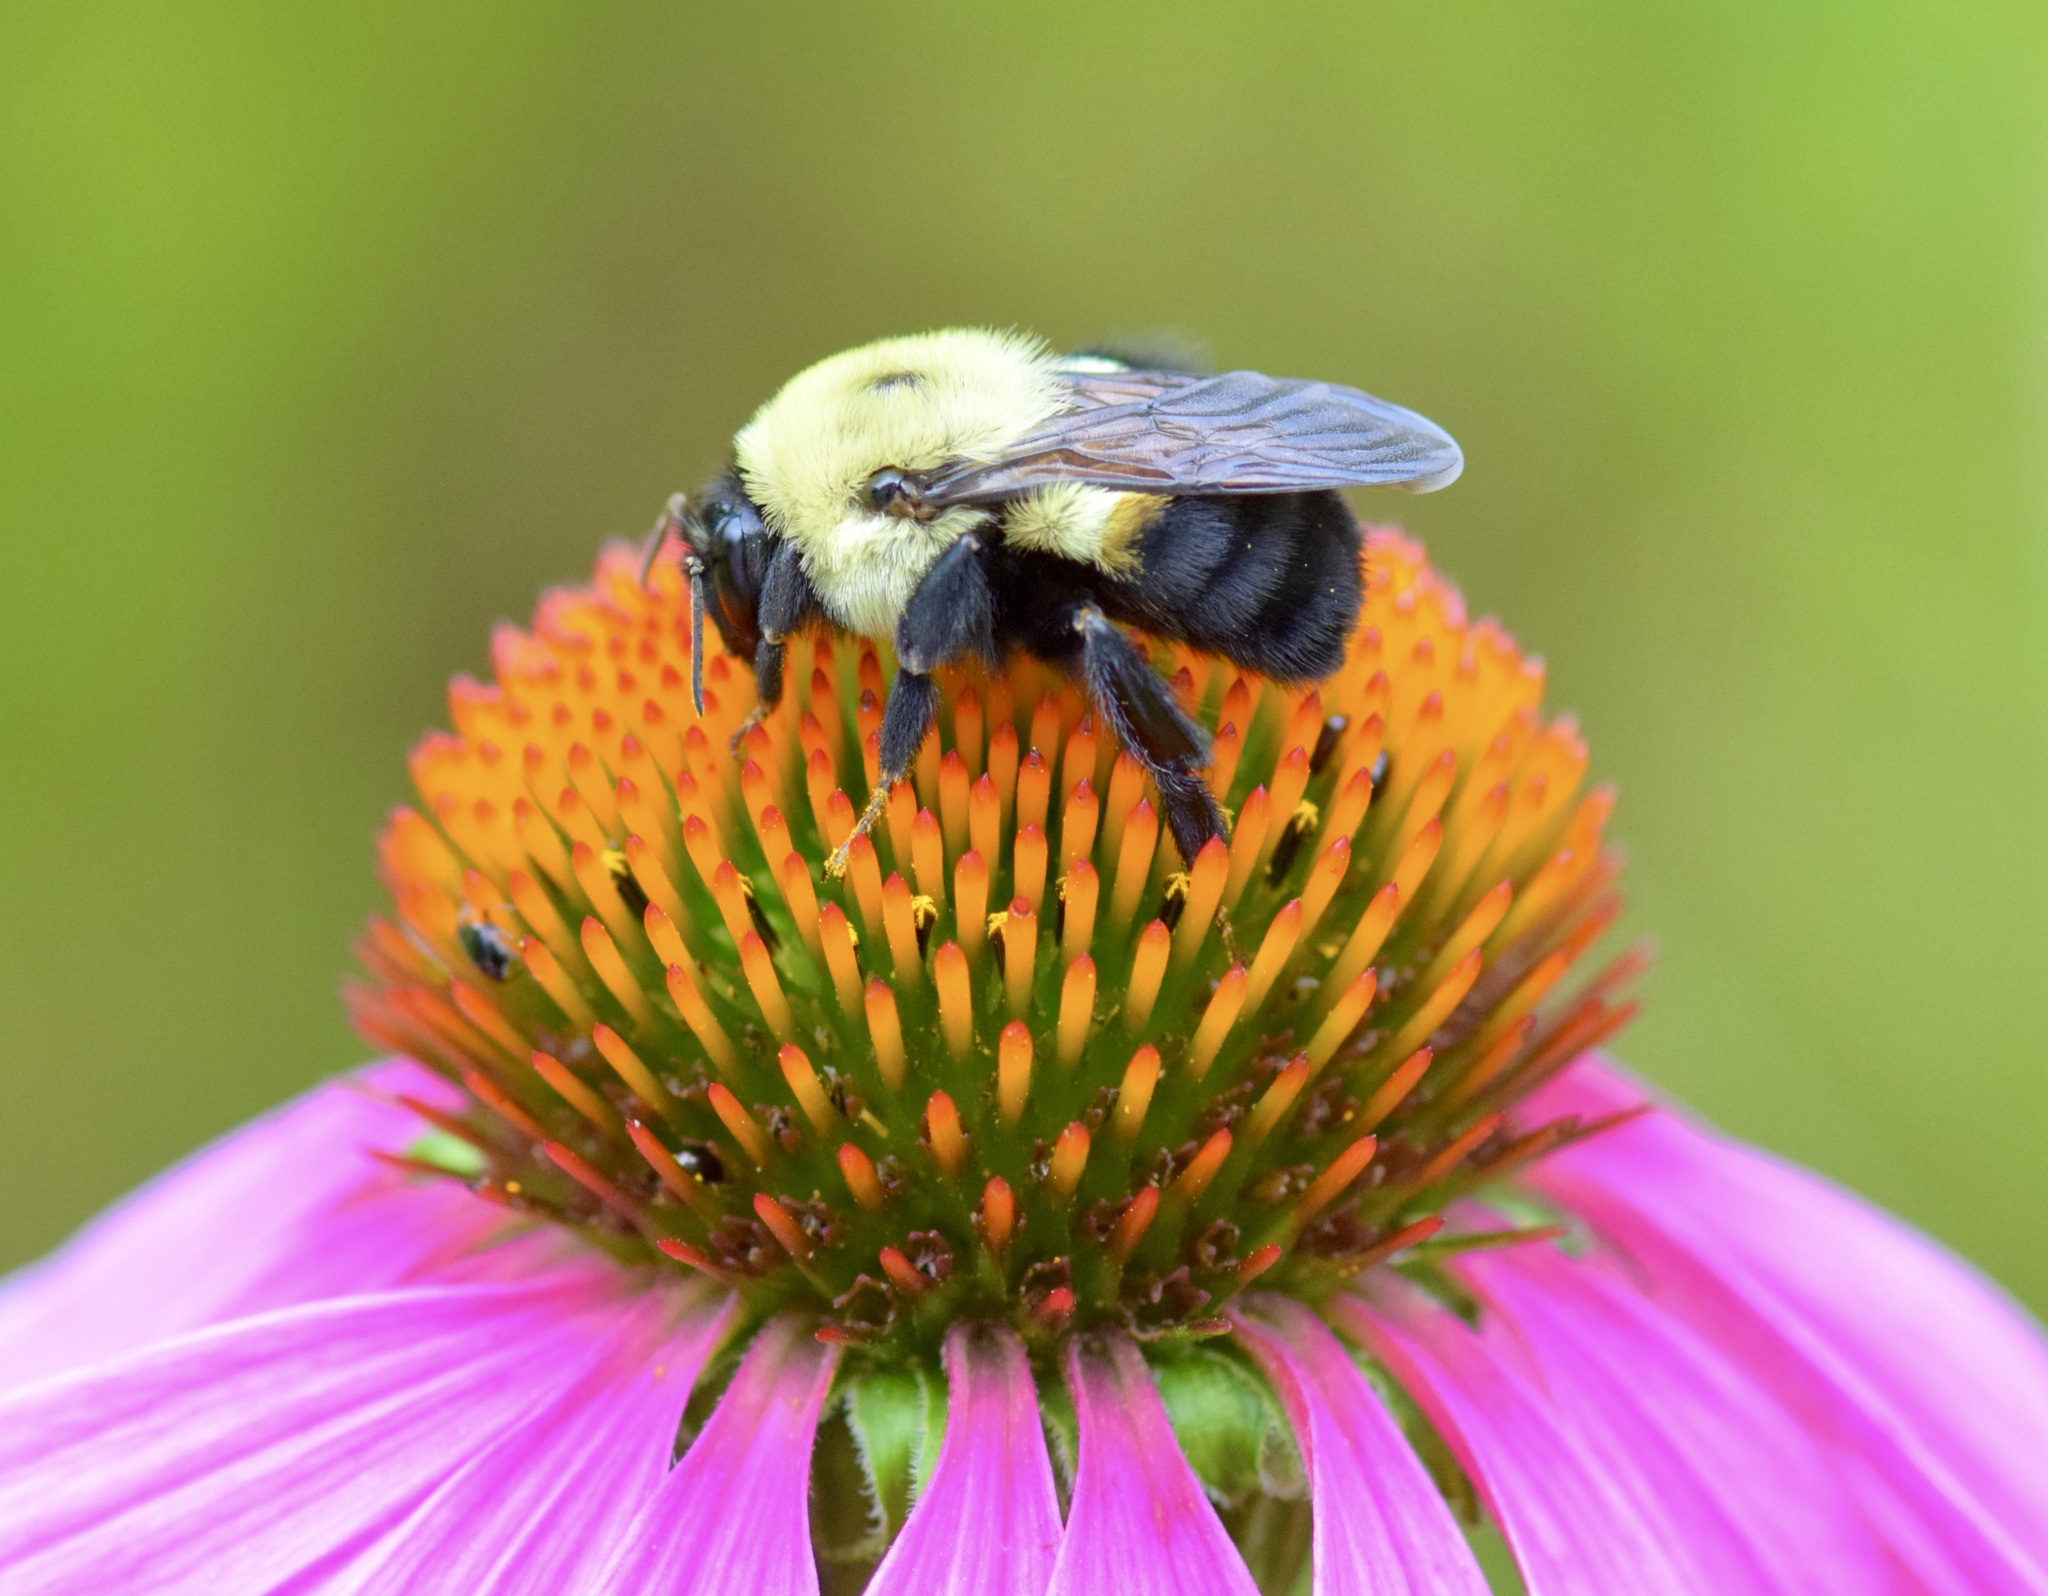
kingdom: Animalia
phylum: Arthropoda
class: Insecta
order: Hymenoptera
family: Apidae
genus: Bombus
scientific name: Bombus griseocollis
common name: Brown-belted bumble bee
